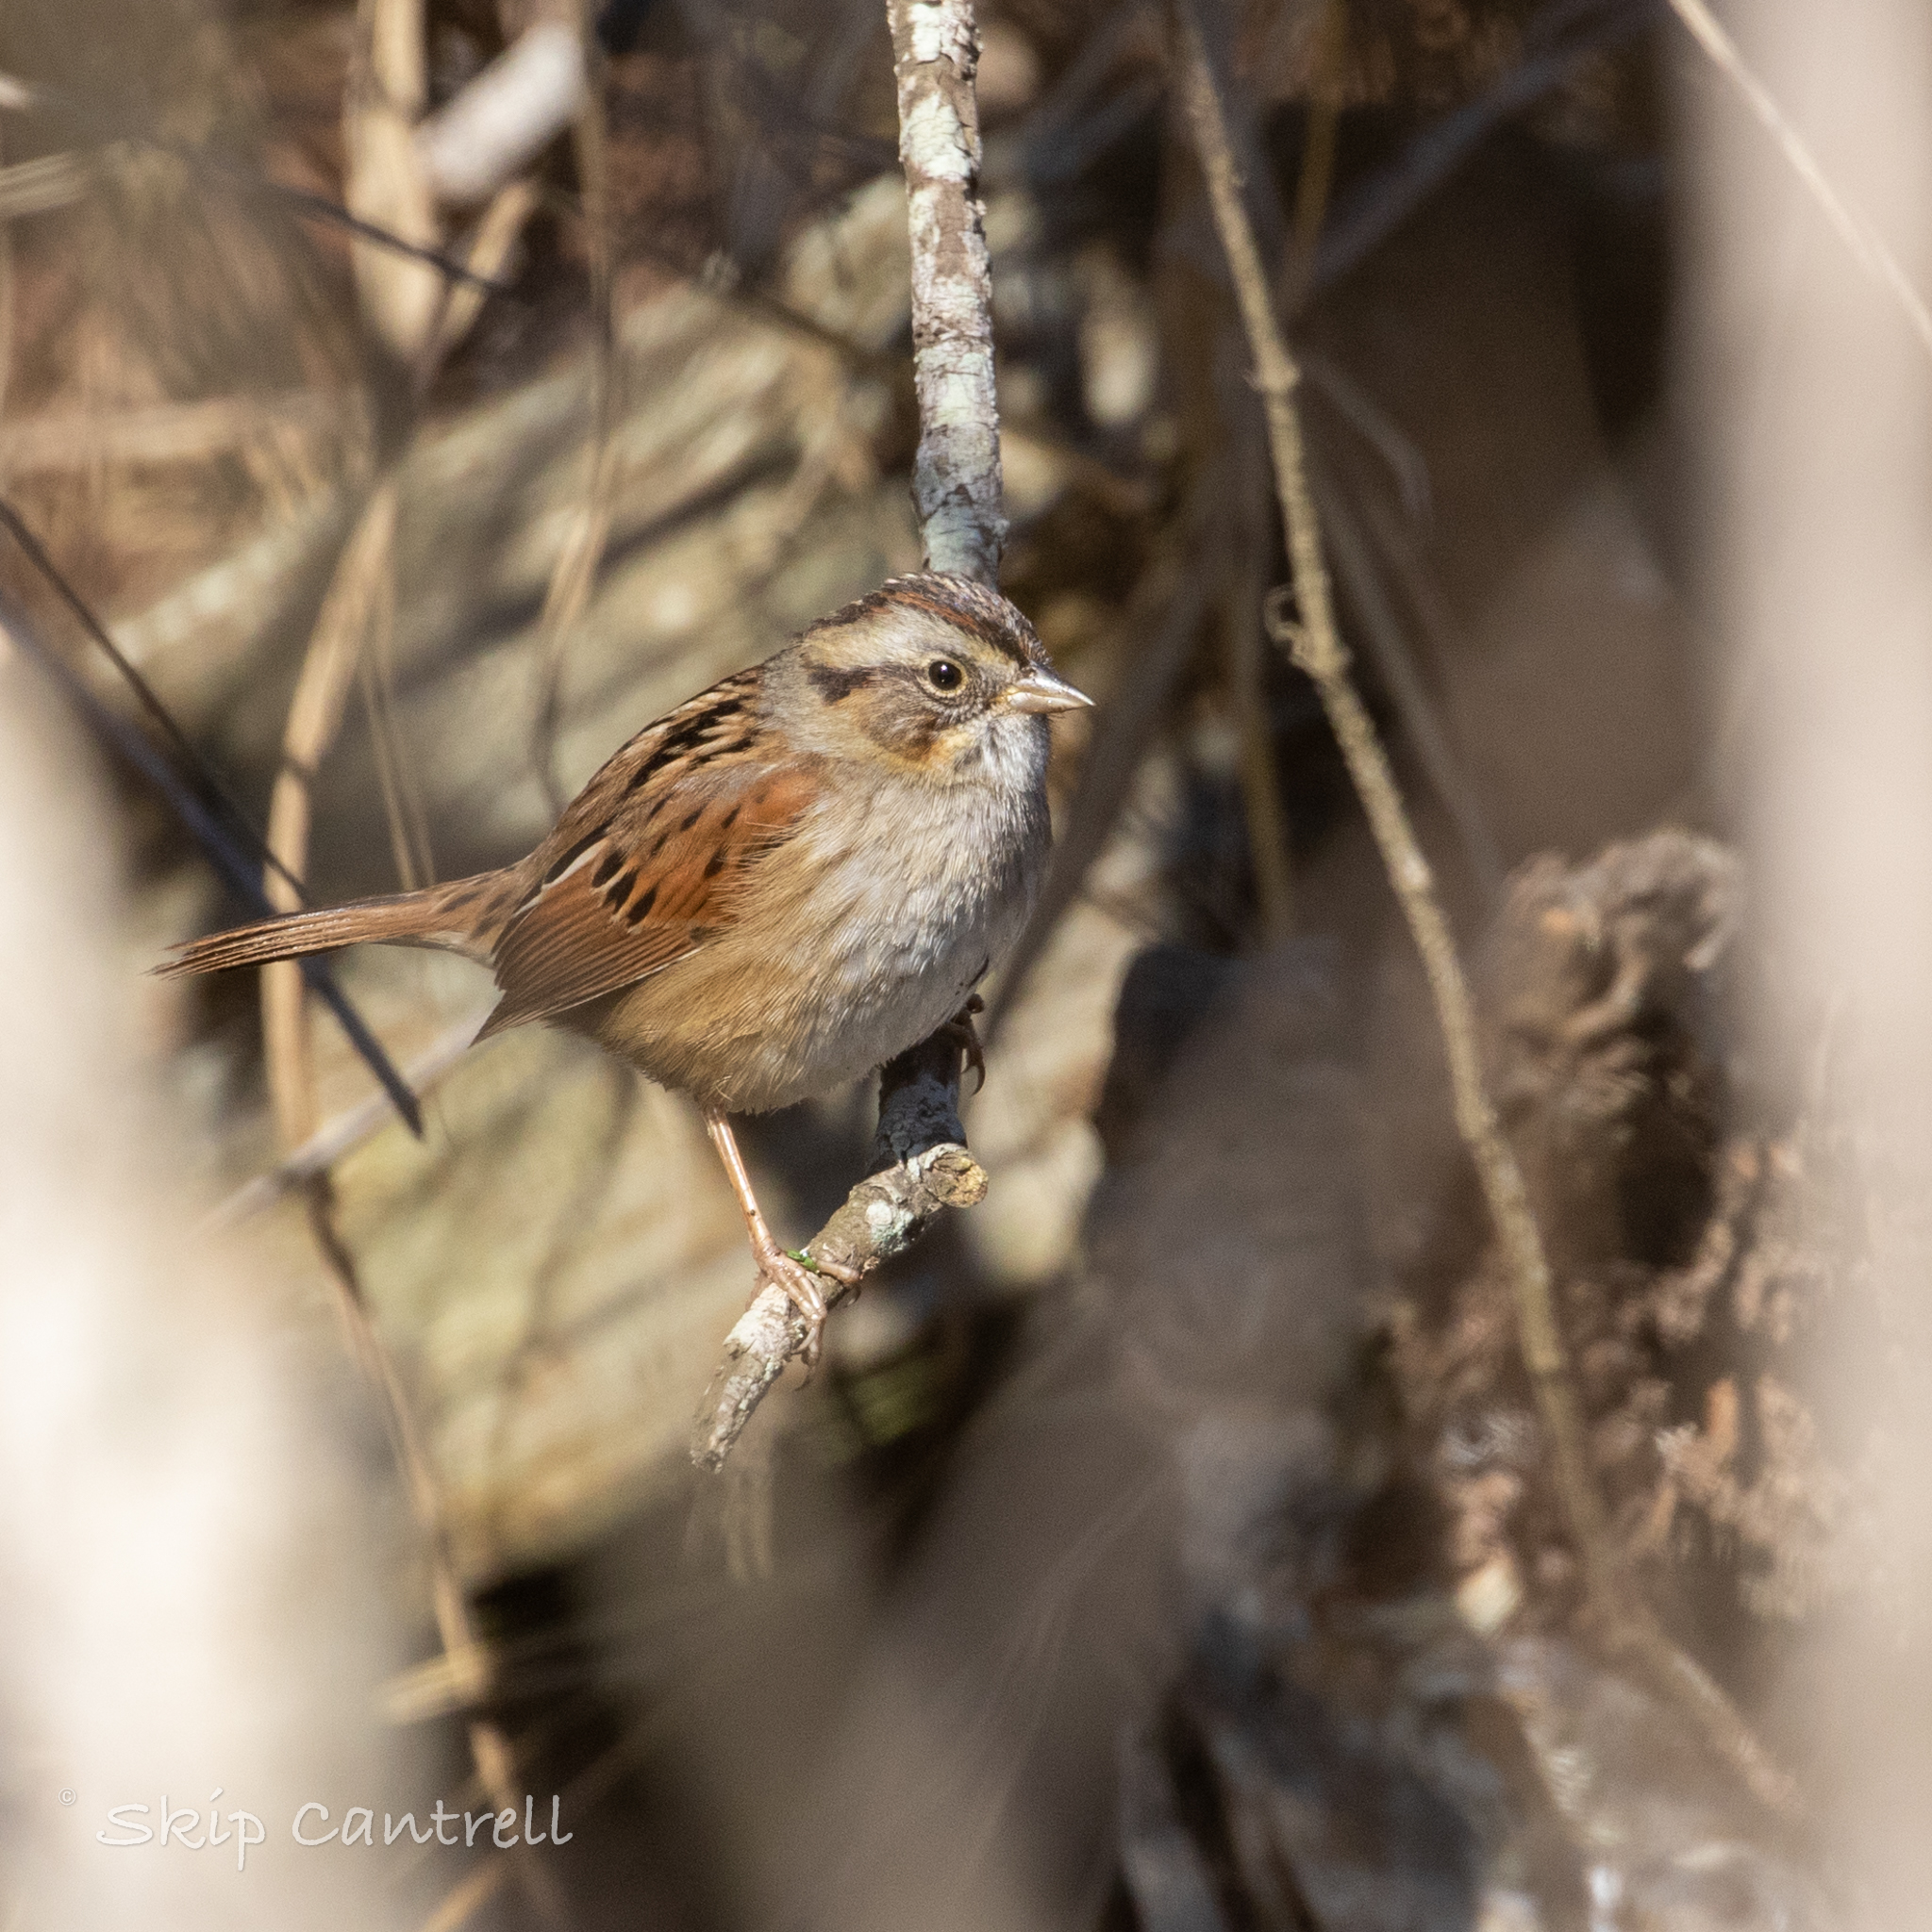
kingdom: Animalia
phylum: Chordata
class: Aves
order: Passeriformes
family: Passerellidae
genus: Melospiza
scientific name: Melospiza georgiana
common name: Swamp sparrow
